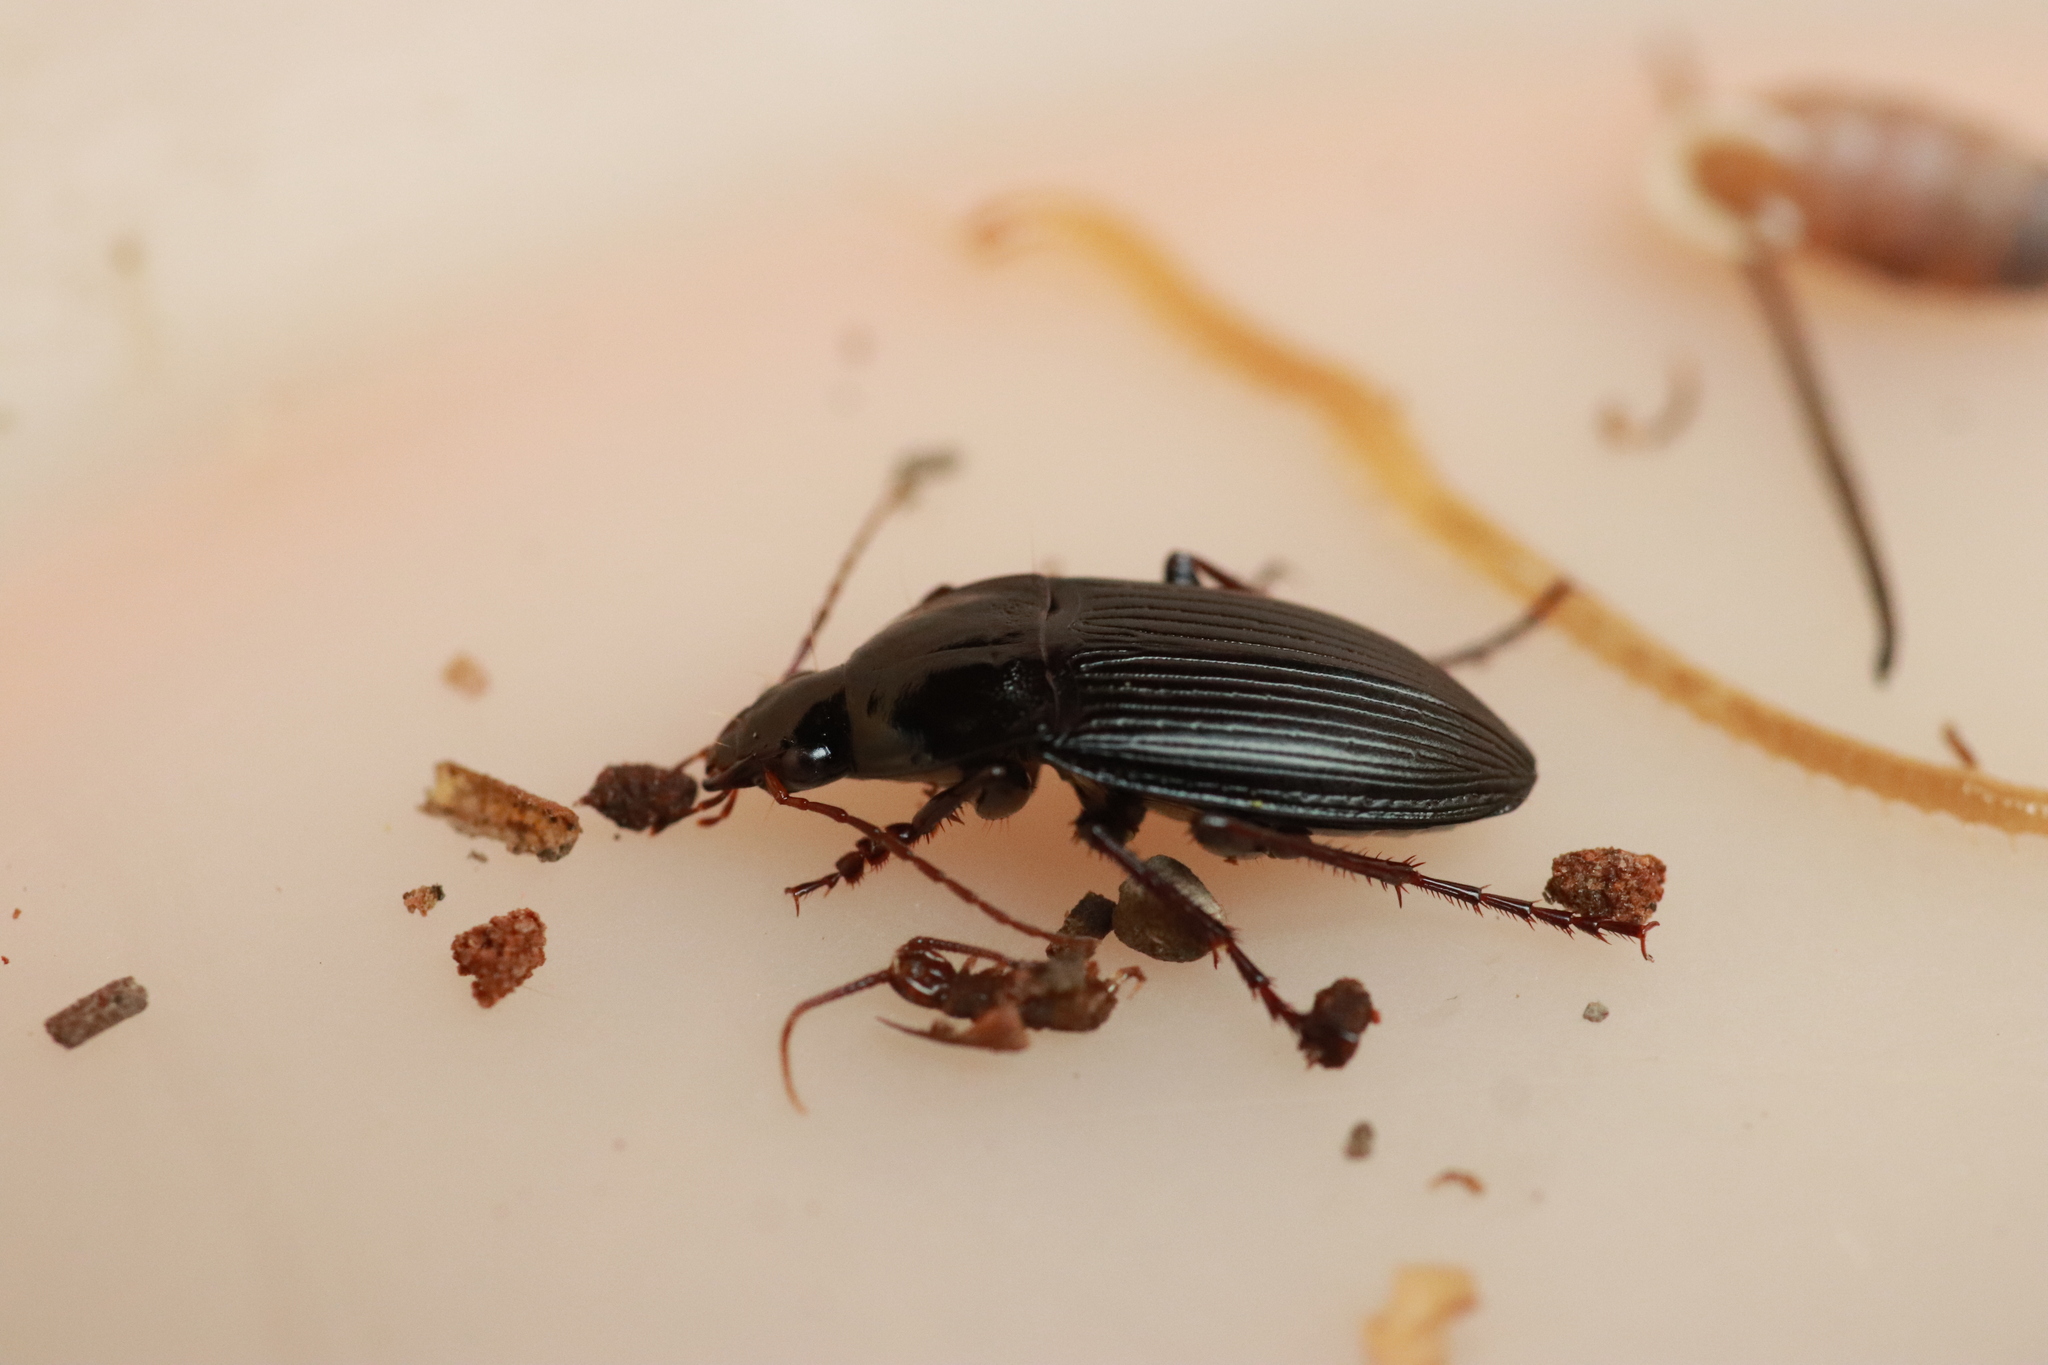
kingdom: Animalia
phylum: Arthropoda
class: Insecta
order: Coleoptera
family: Carabidae
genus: Calathus
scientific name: Calathus fuscipes
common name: Dark-footed harp ground beetle
